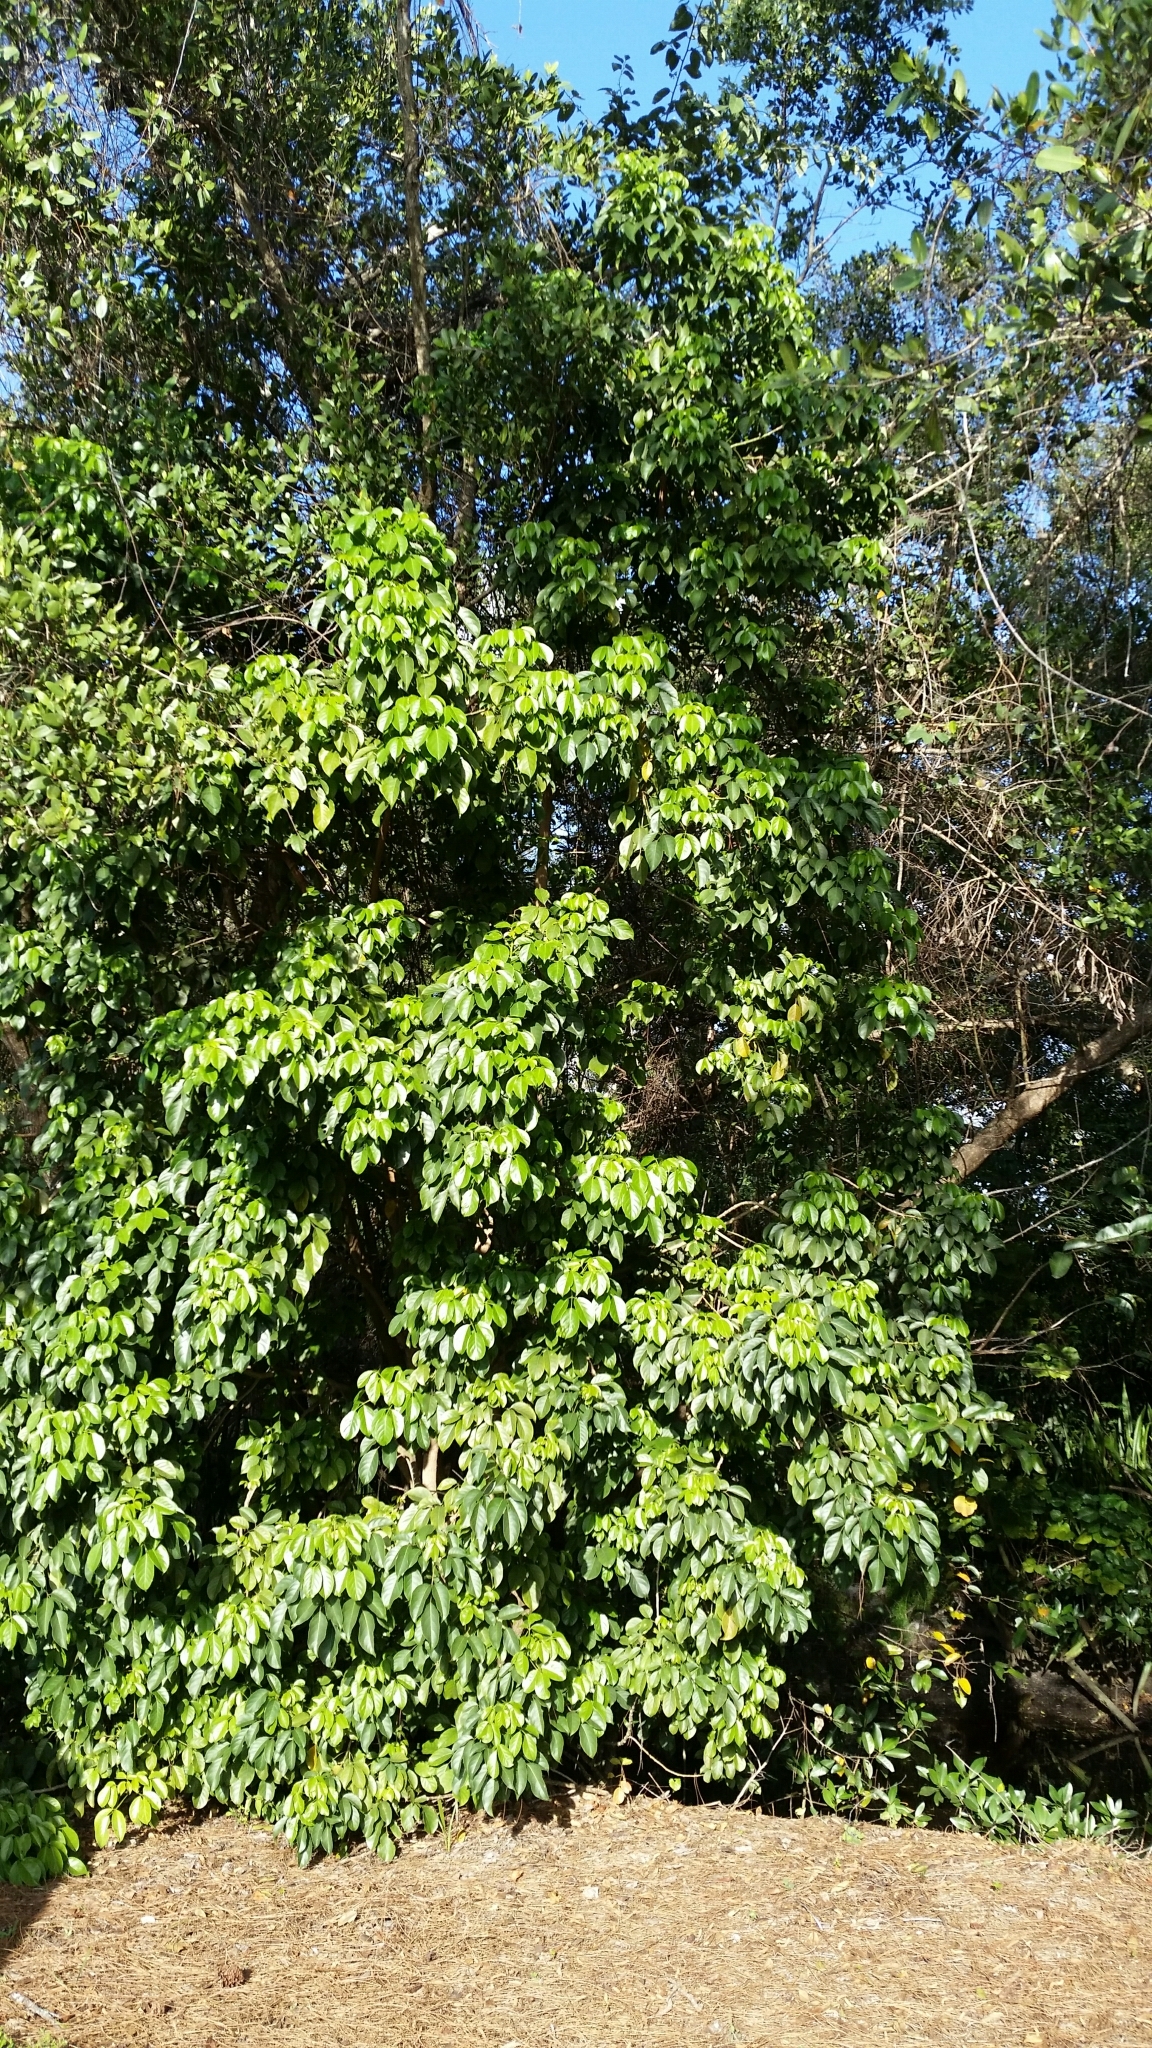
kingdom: Plantae
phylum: Tracheophyta
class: Magnoliopsida
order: Malpighiales
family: Phyllanthaceae
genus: Bischofia
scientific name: Bischofia javanica
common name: Javanese bishopwood
